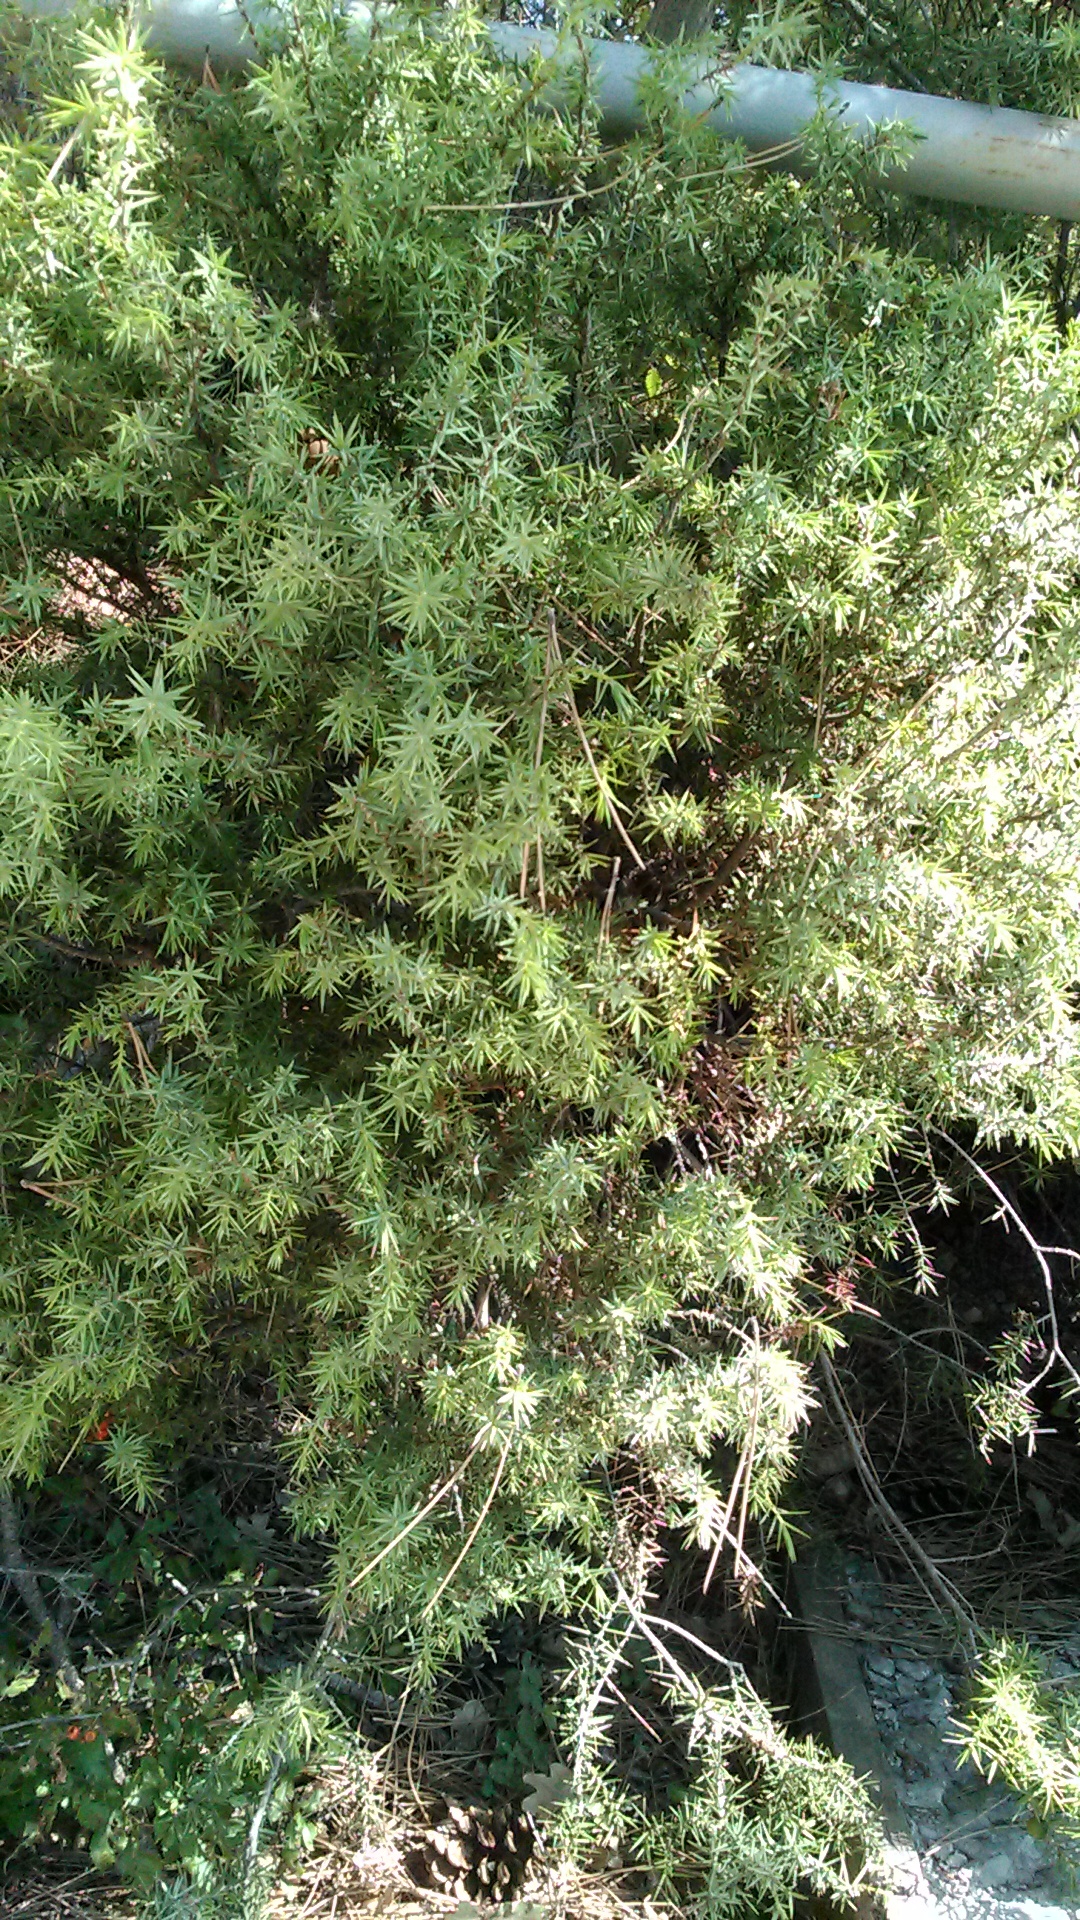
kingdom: Plantae
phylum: Tracheophyta
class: Pinopsida
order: Pinales
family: Cupressaceae
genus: Juniperus
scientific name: Juniperus oxycedrus
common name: Prickly juniper
